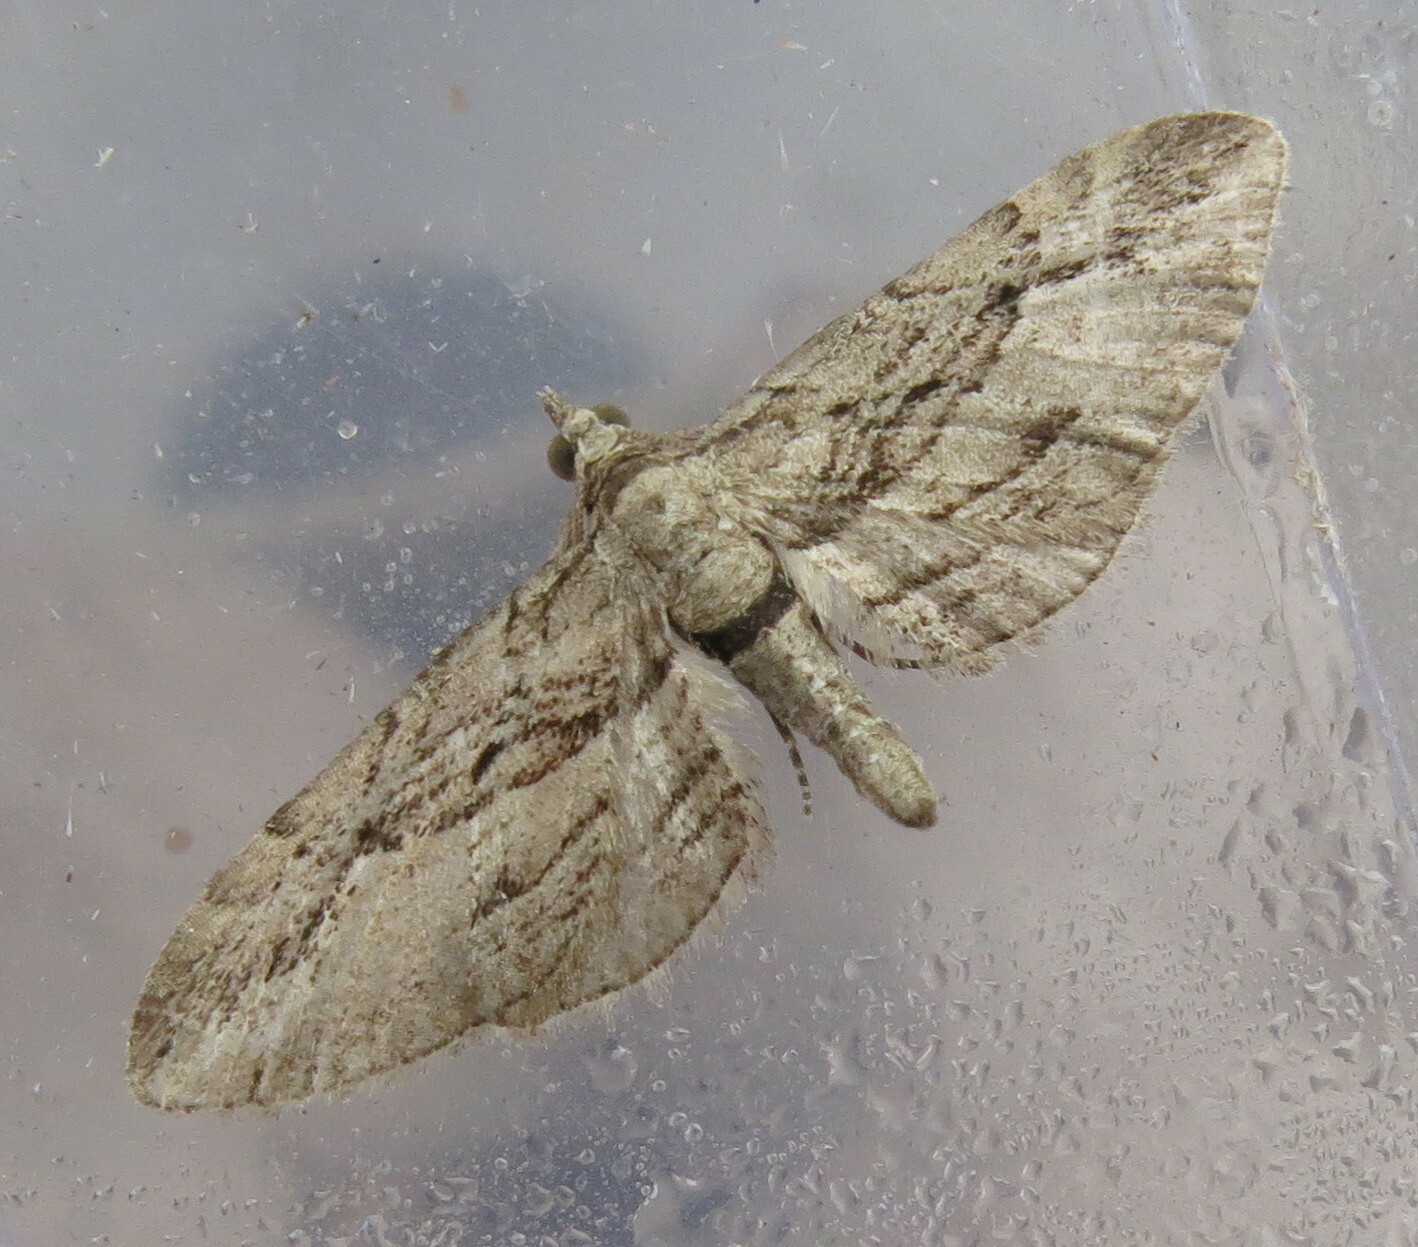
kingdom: Animalia
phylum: Arthropoda
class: Insecta
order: Lepidoptera
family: Geometridae
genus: Eupithecia
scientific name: Eupithecia phoeniceata
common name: Cypress pug
